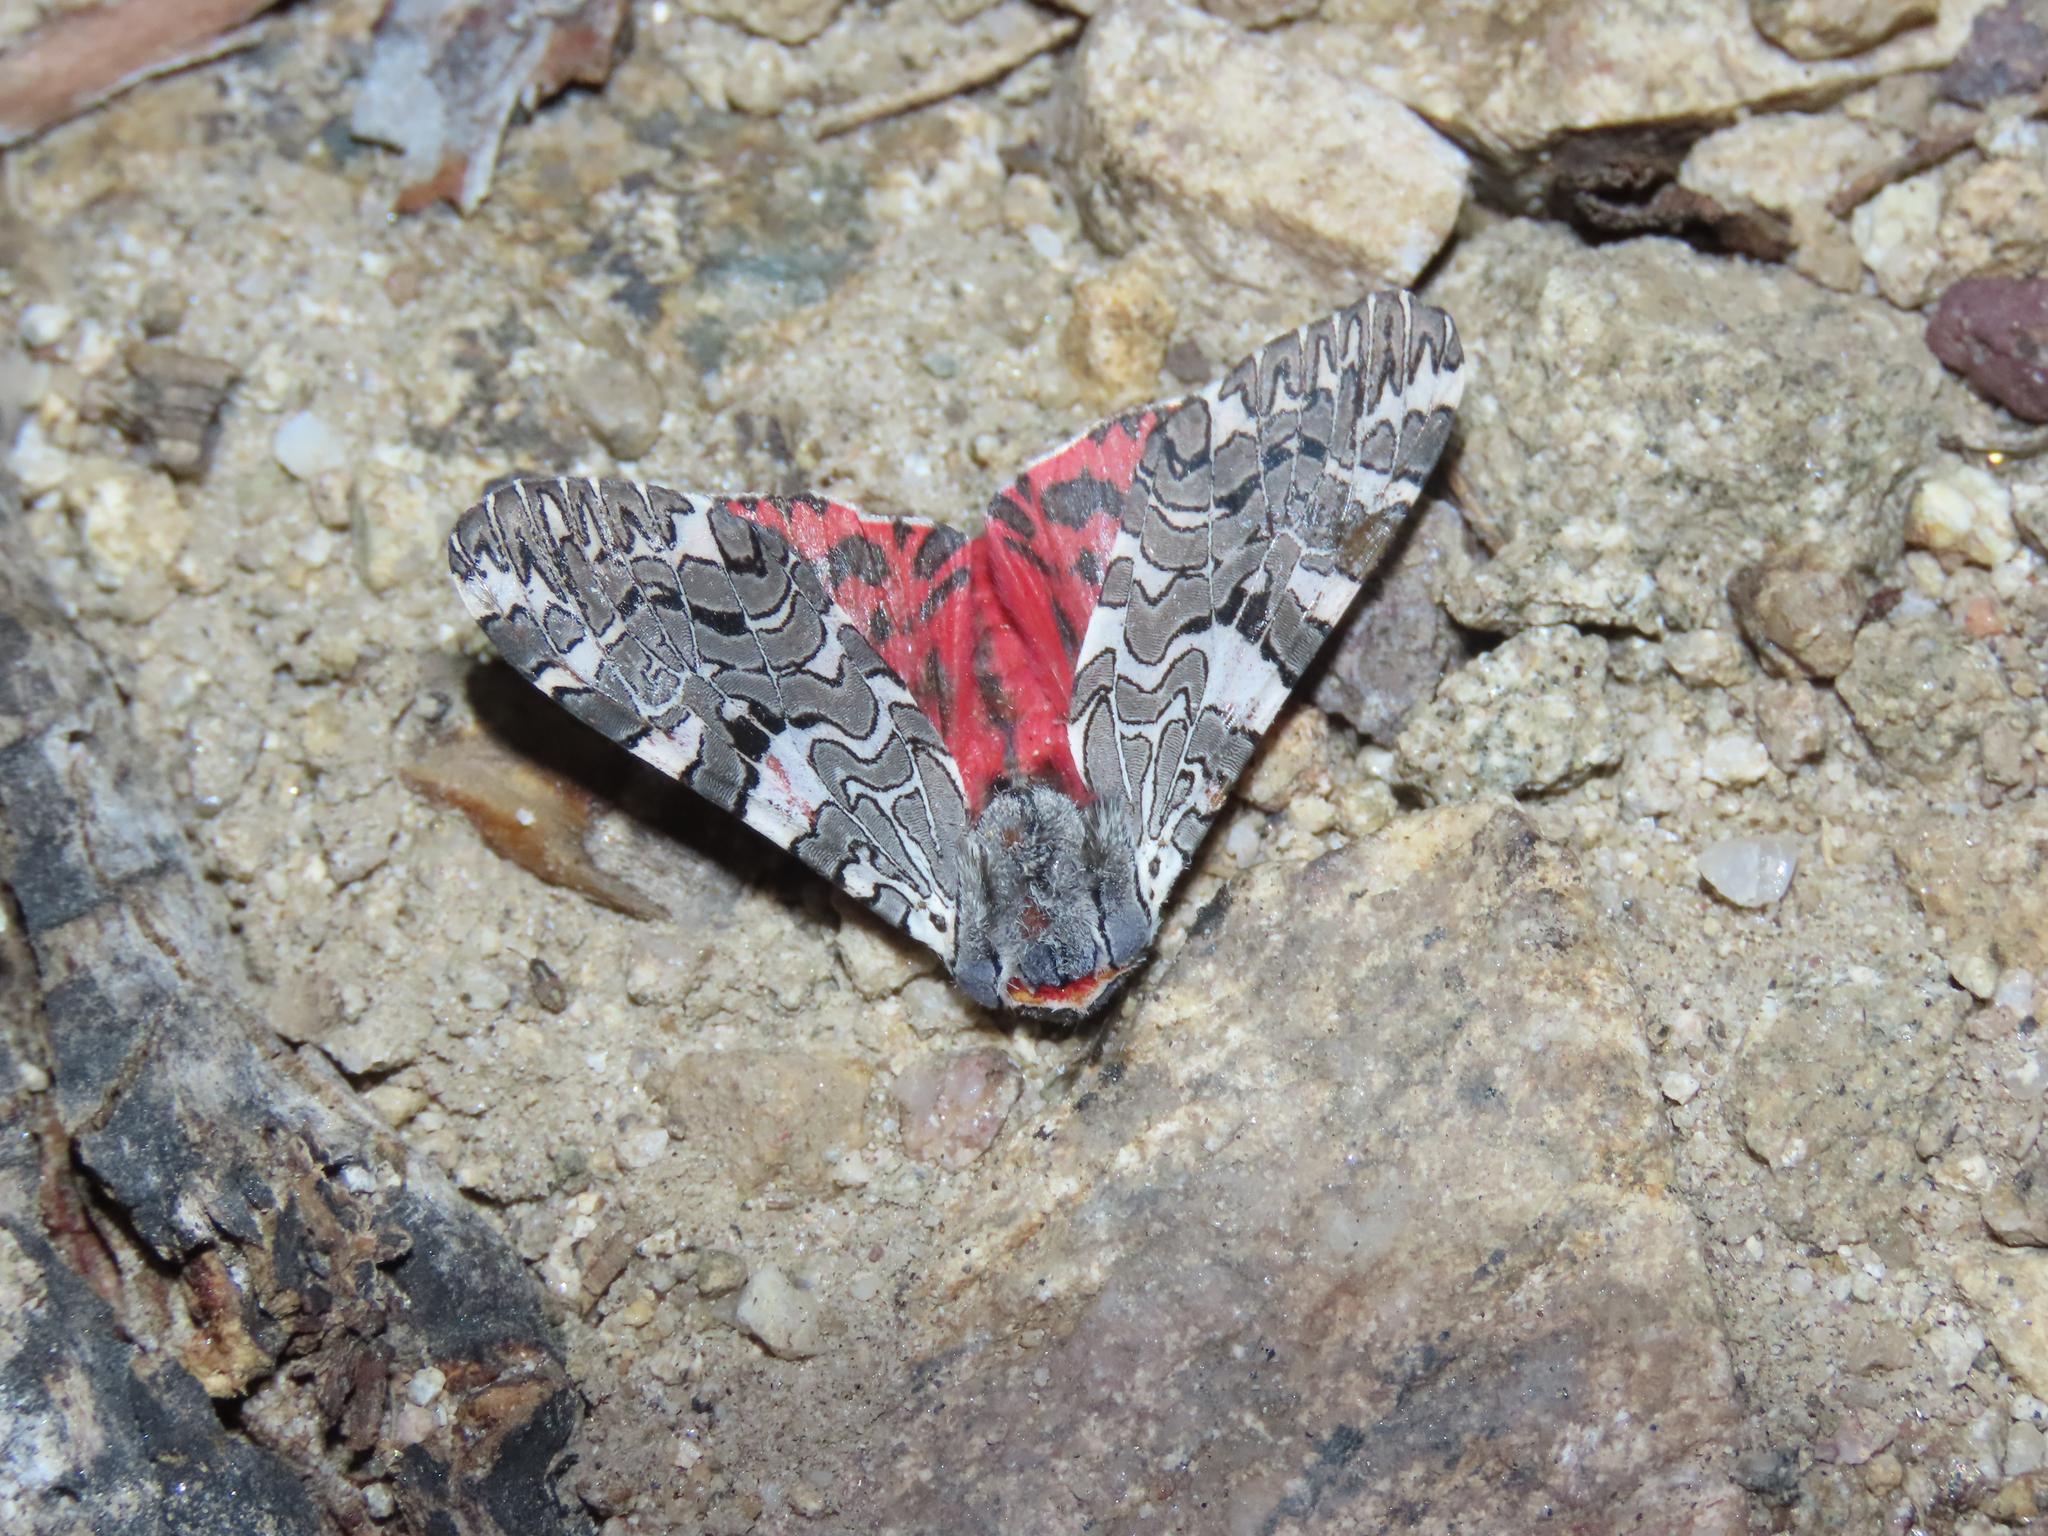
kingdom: Animalia
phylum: Arthropoda
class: Insecta
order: Lepidoptera
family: Erebidae
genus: Arachnis
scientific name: Arachnis picta
